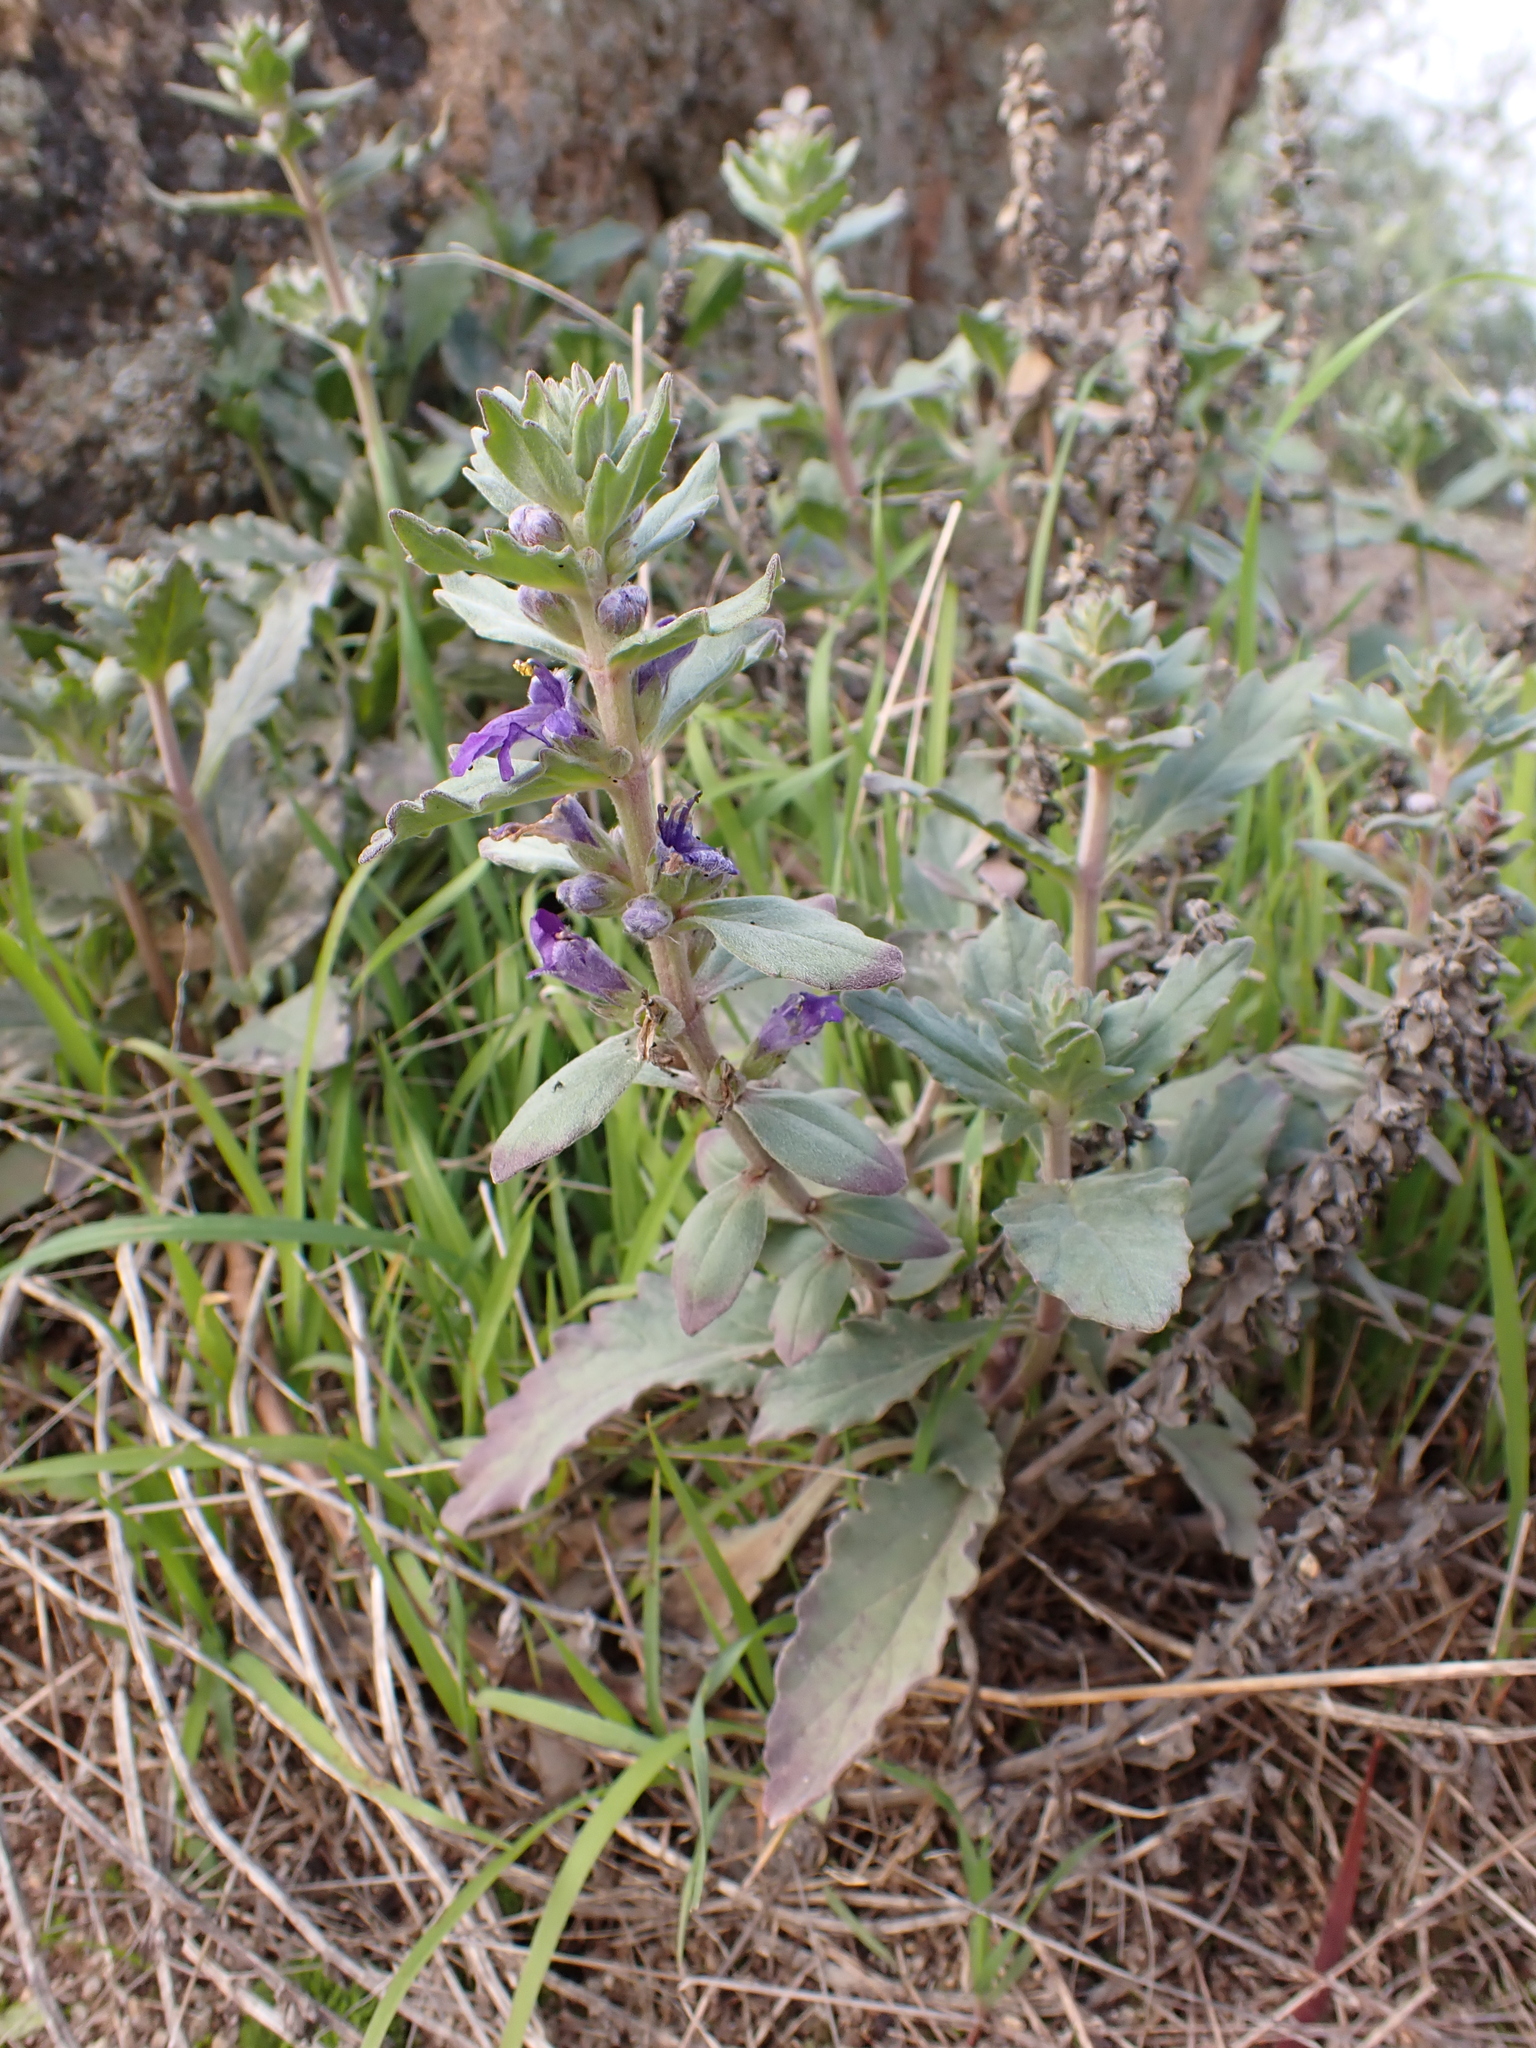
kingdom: Plantae
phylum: Tracheophyta
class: Magnoliopsida
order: Lamiales
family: Lamiaceae
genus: Ajuga
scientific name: Ajuga australis
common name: Australian bugle
